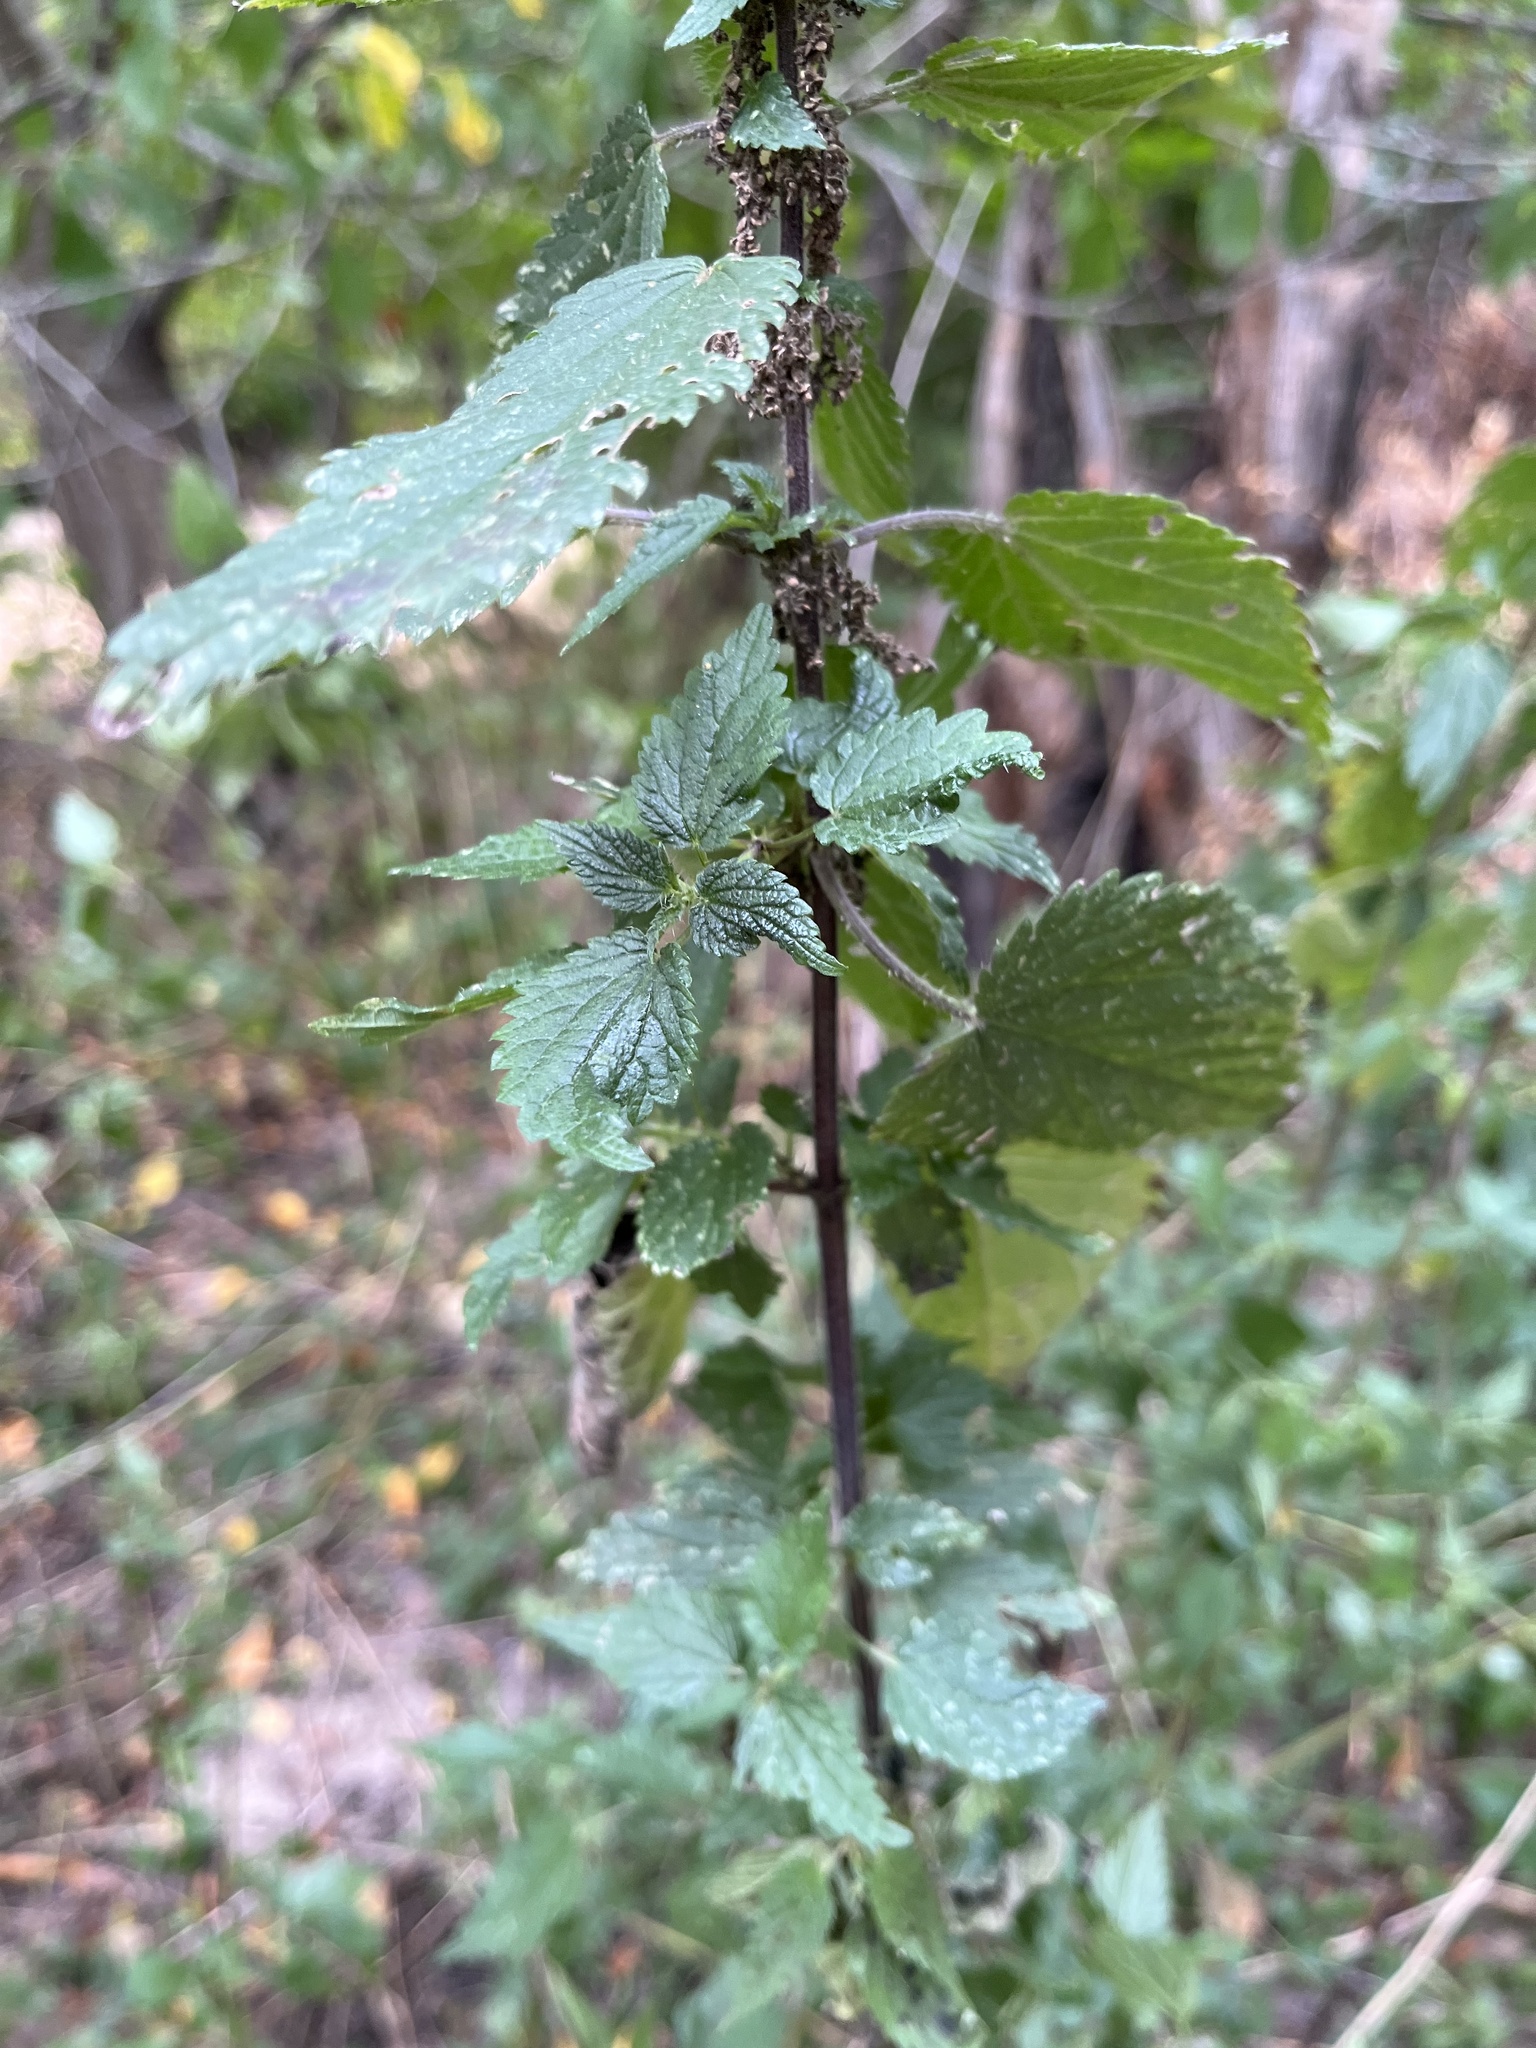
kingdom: Plantae
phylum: Tracheophyta
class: Magnoliopsida
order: Rosales
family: Urticaceae
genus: Urtica
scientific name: Urtica dioica
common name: Common nettle
